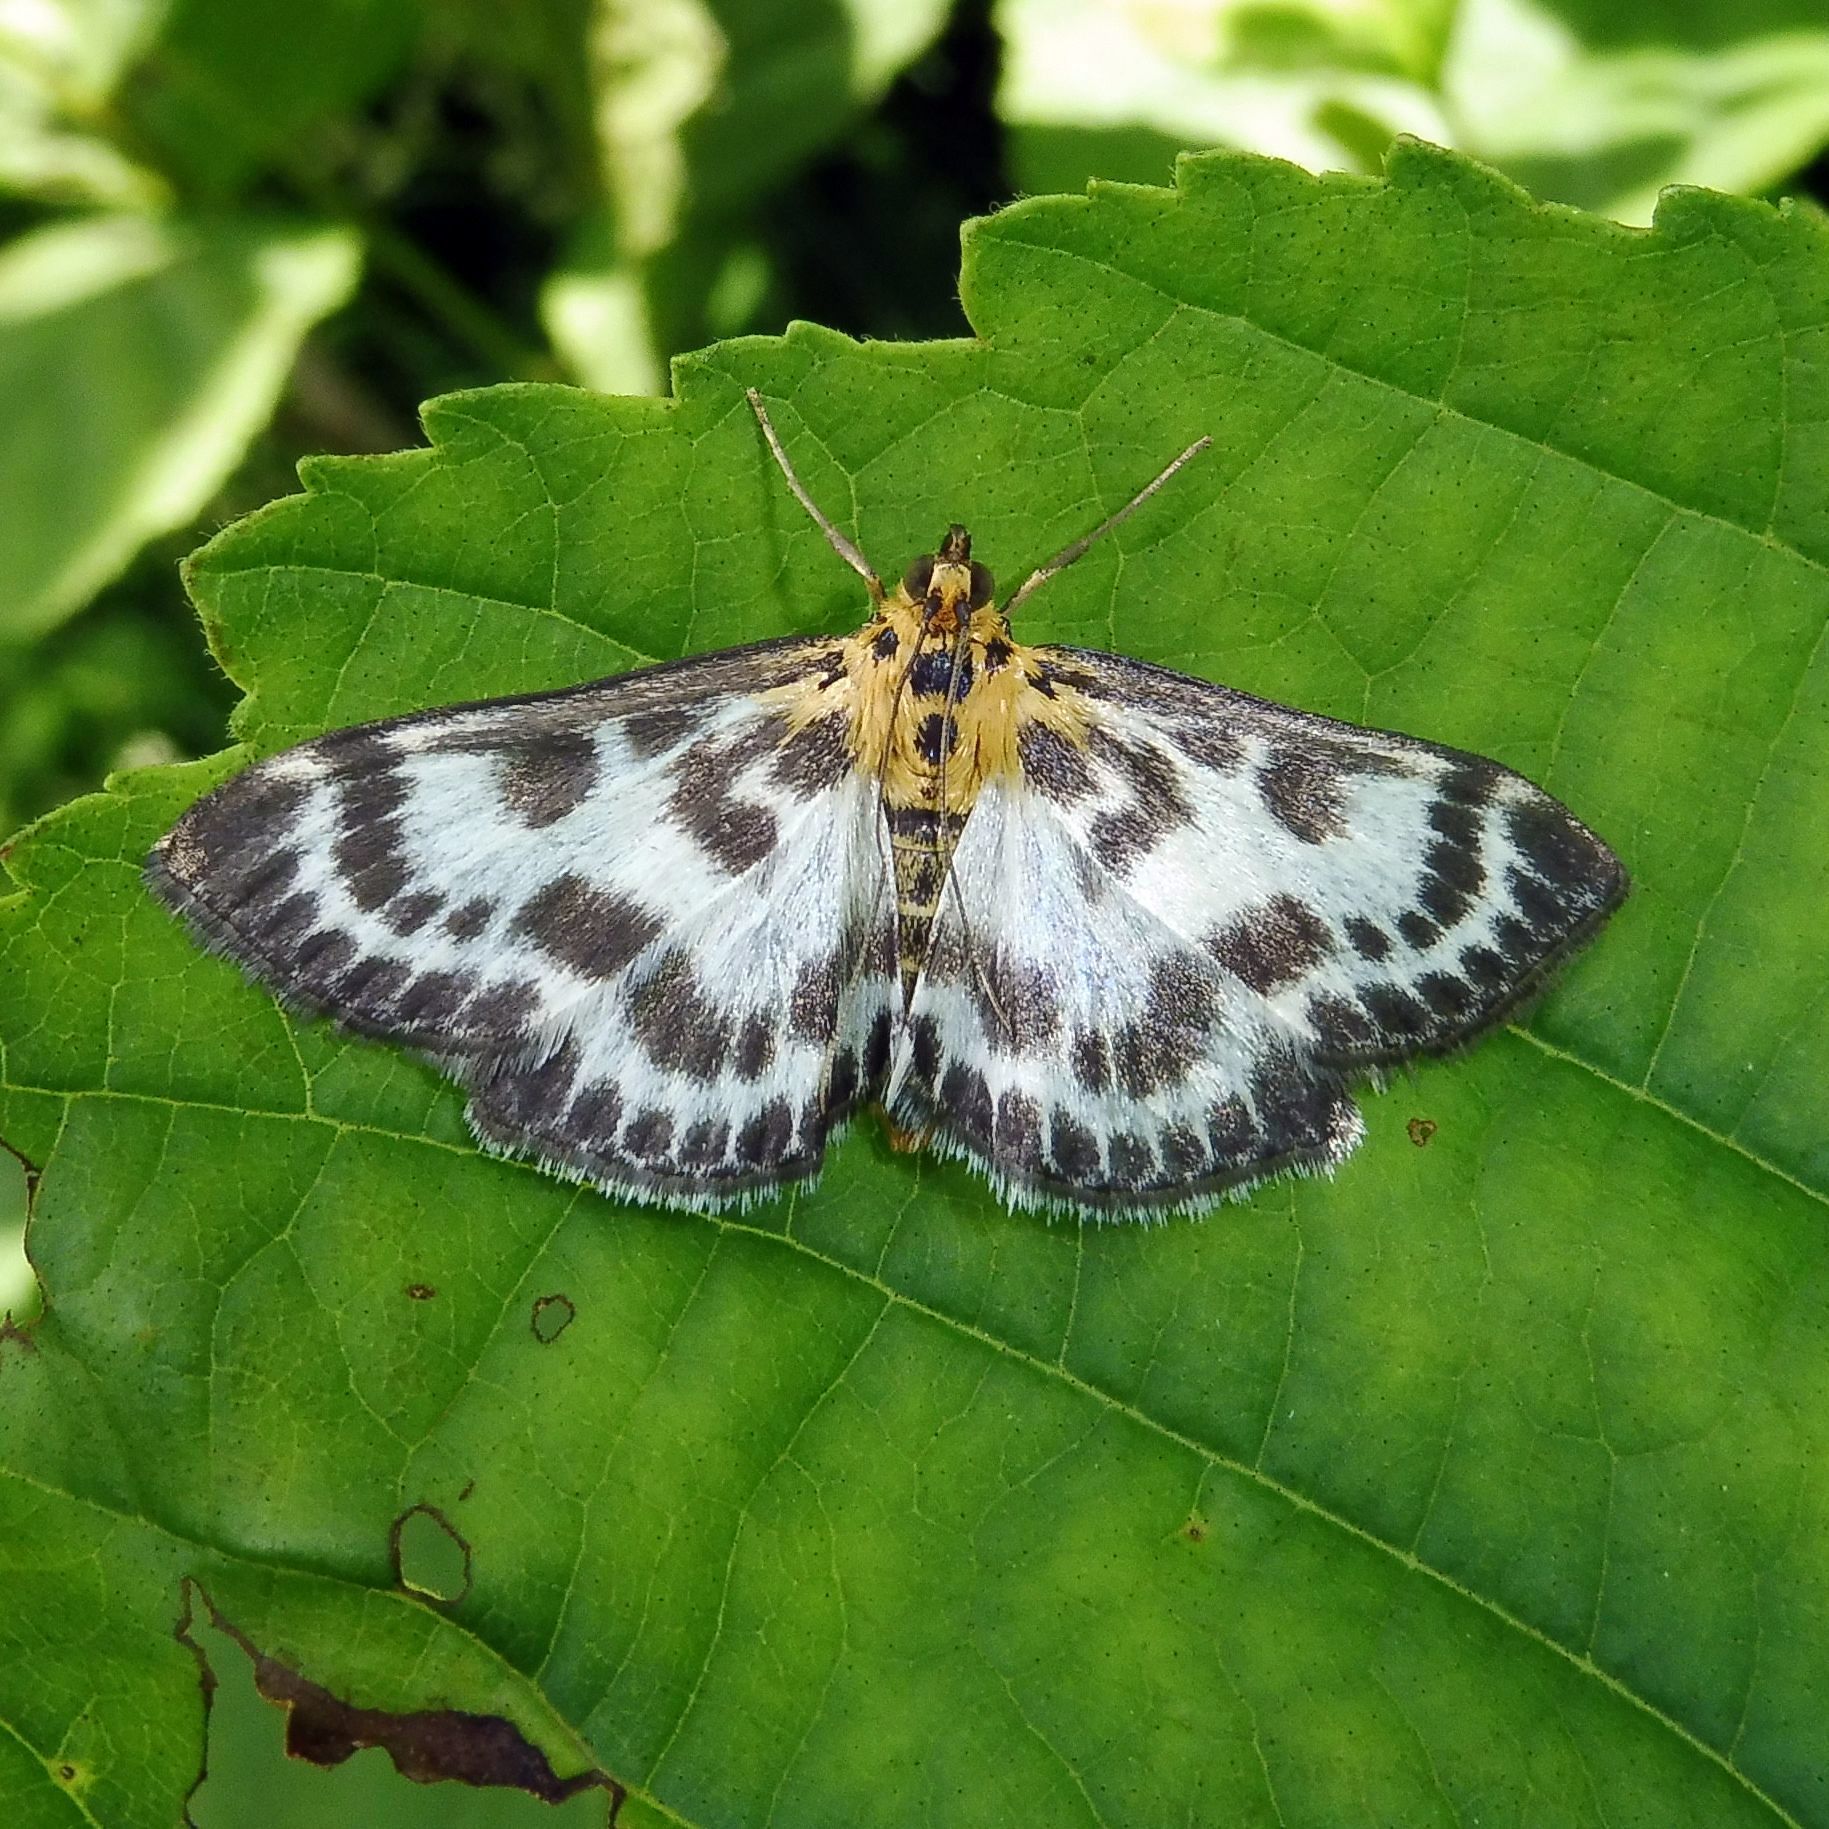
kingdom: Animalia
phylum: Arthropoda
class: Insecta
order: Lepidoptera
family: Crambidae
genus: Anania
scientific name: Anania hortulata
